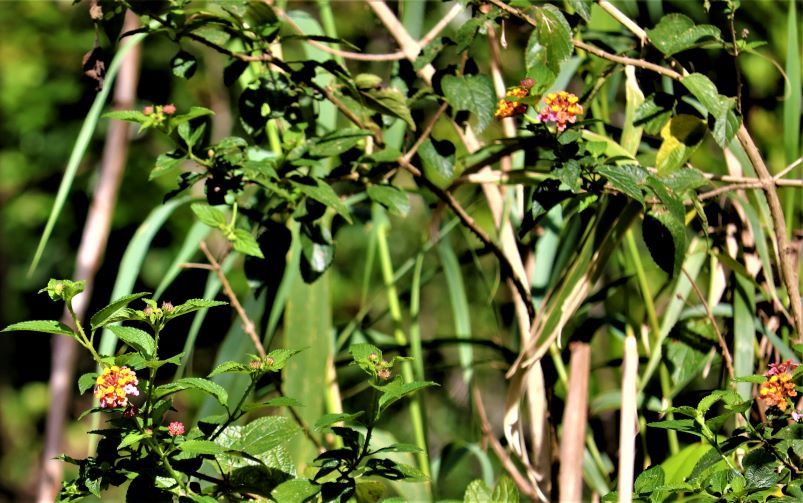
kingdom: Plantae
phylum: Tracheophyta
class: Magnoliopsida
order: Lamiales
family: Verbenaceae
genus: Lantana
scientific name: Lantana camara
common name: Lantana
